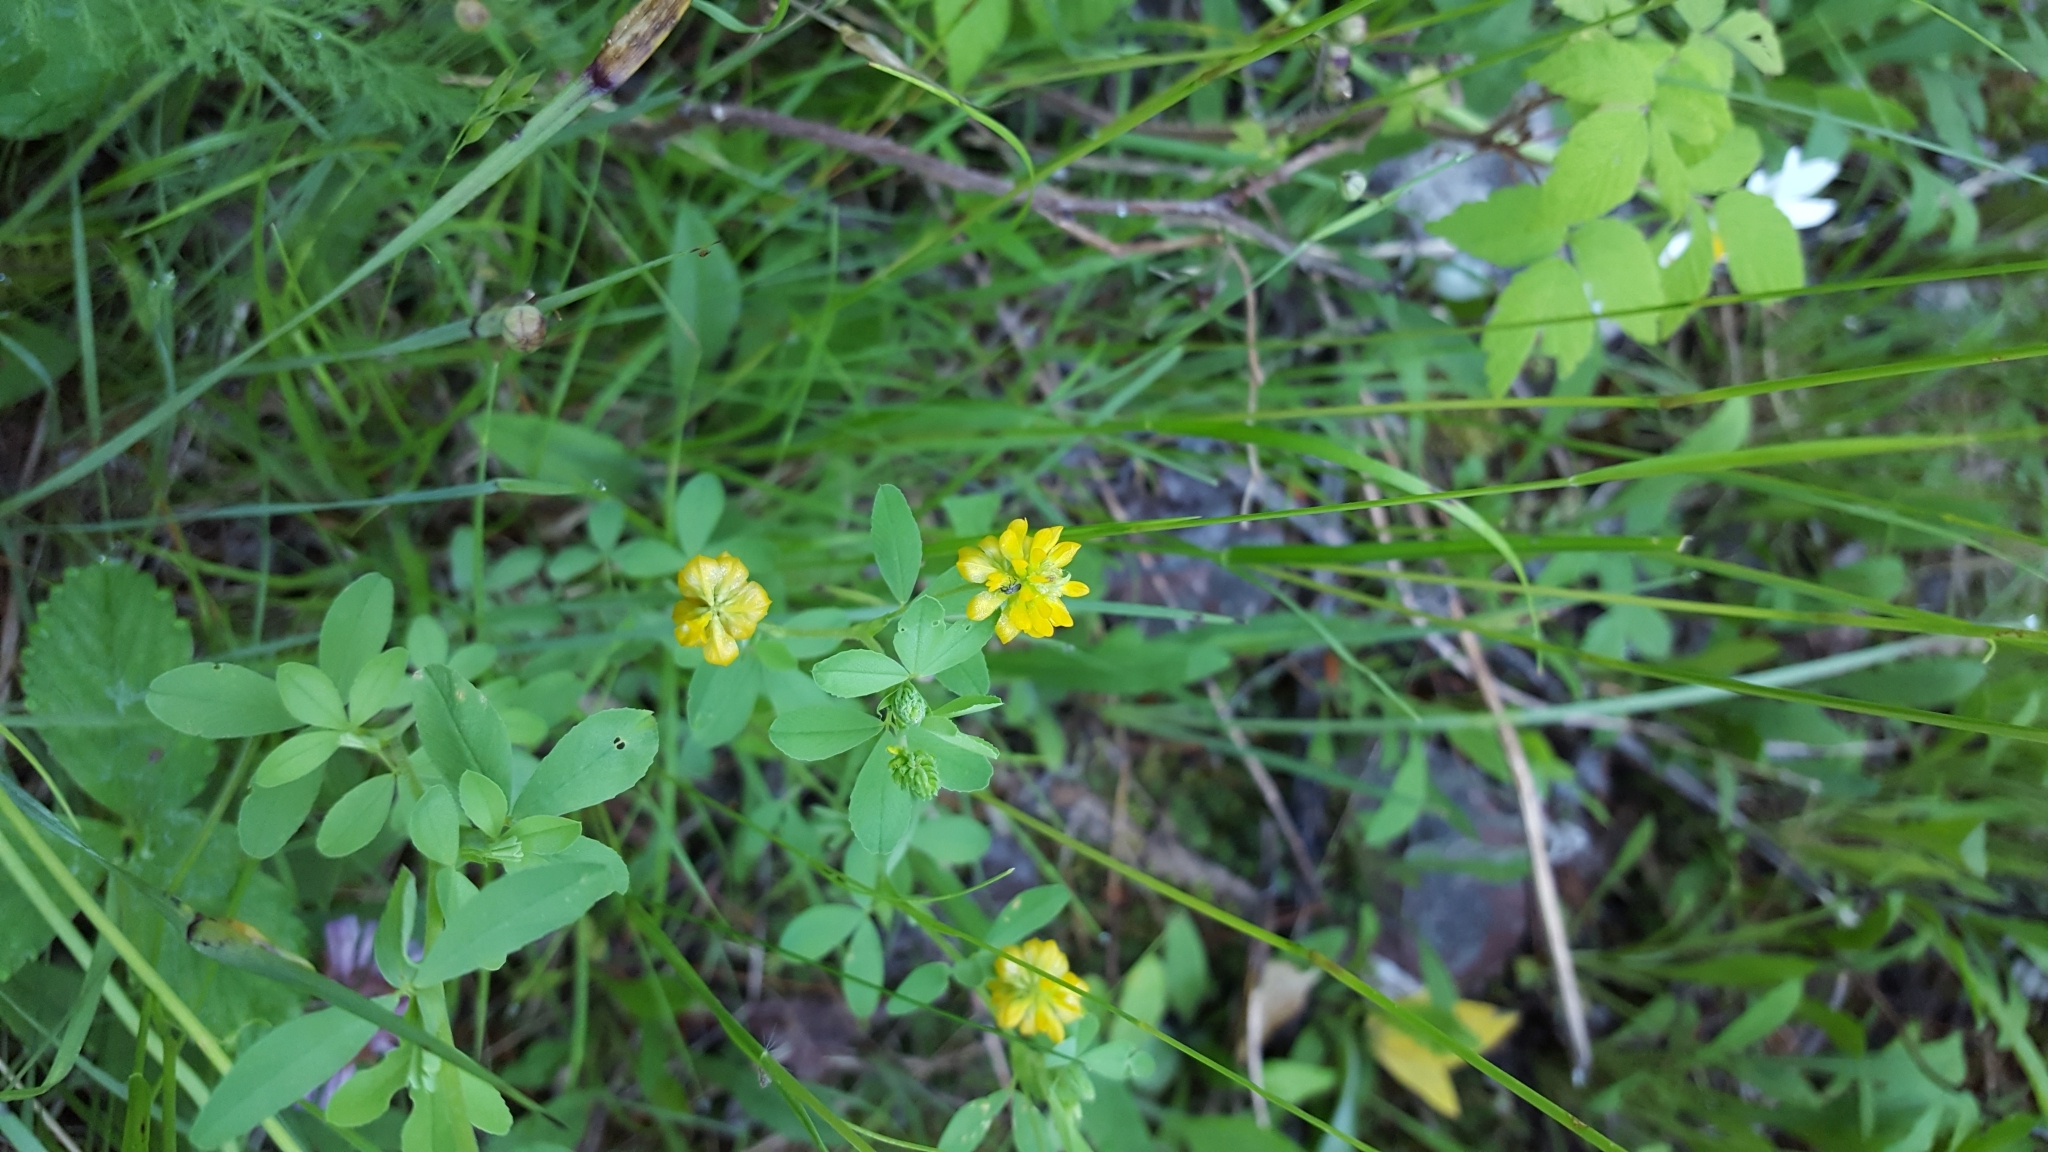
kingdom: Plantae
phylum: Tracheophyta
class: Magnoliopsida
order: Fabales
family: Fabaceae
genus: Trifolium
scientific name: Trifolium aureum
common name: Golden clover
